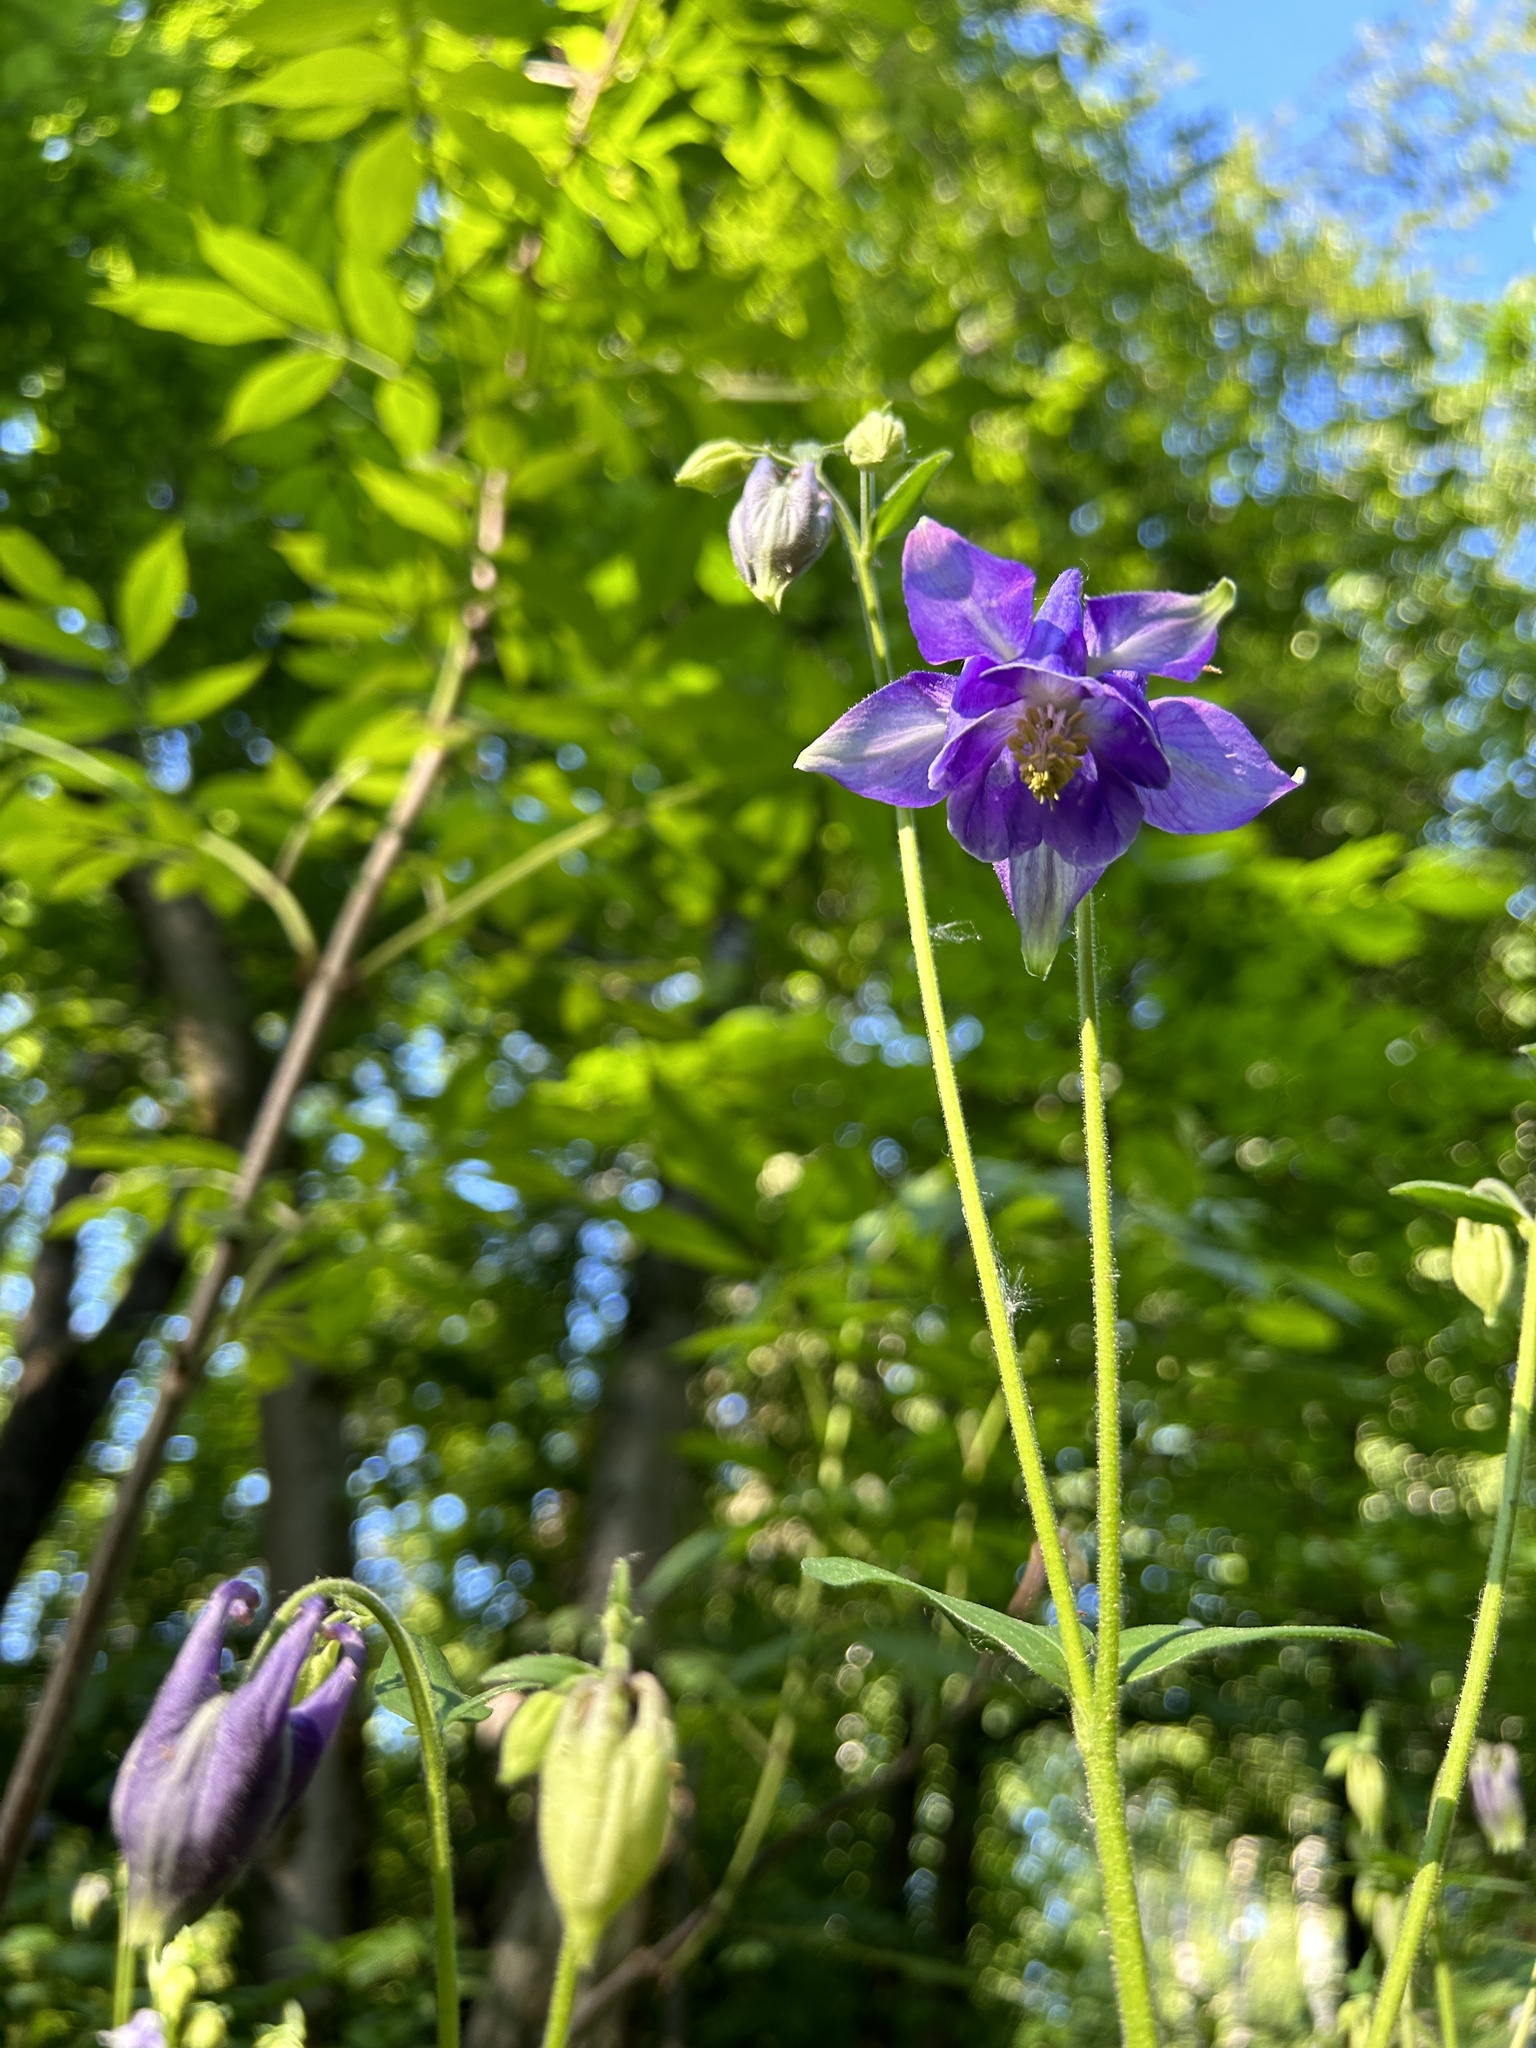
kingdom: Plantae
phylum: Tracheophyta
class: Magnoliopsida
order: Ranunculales
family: Ranunculaceae
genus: Aquilegia
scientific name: Aquilegia vulgaris
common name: Columbine
